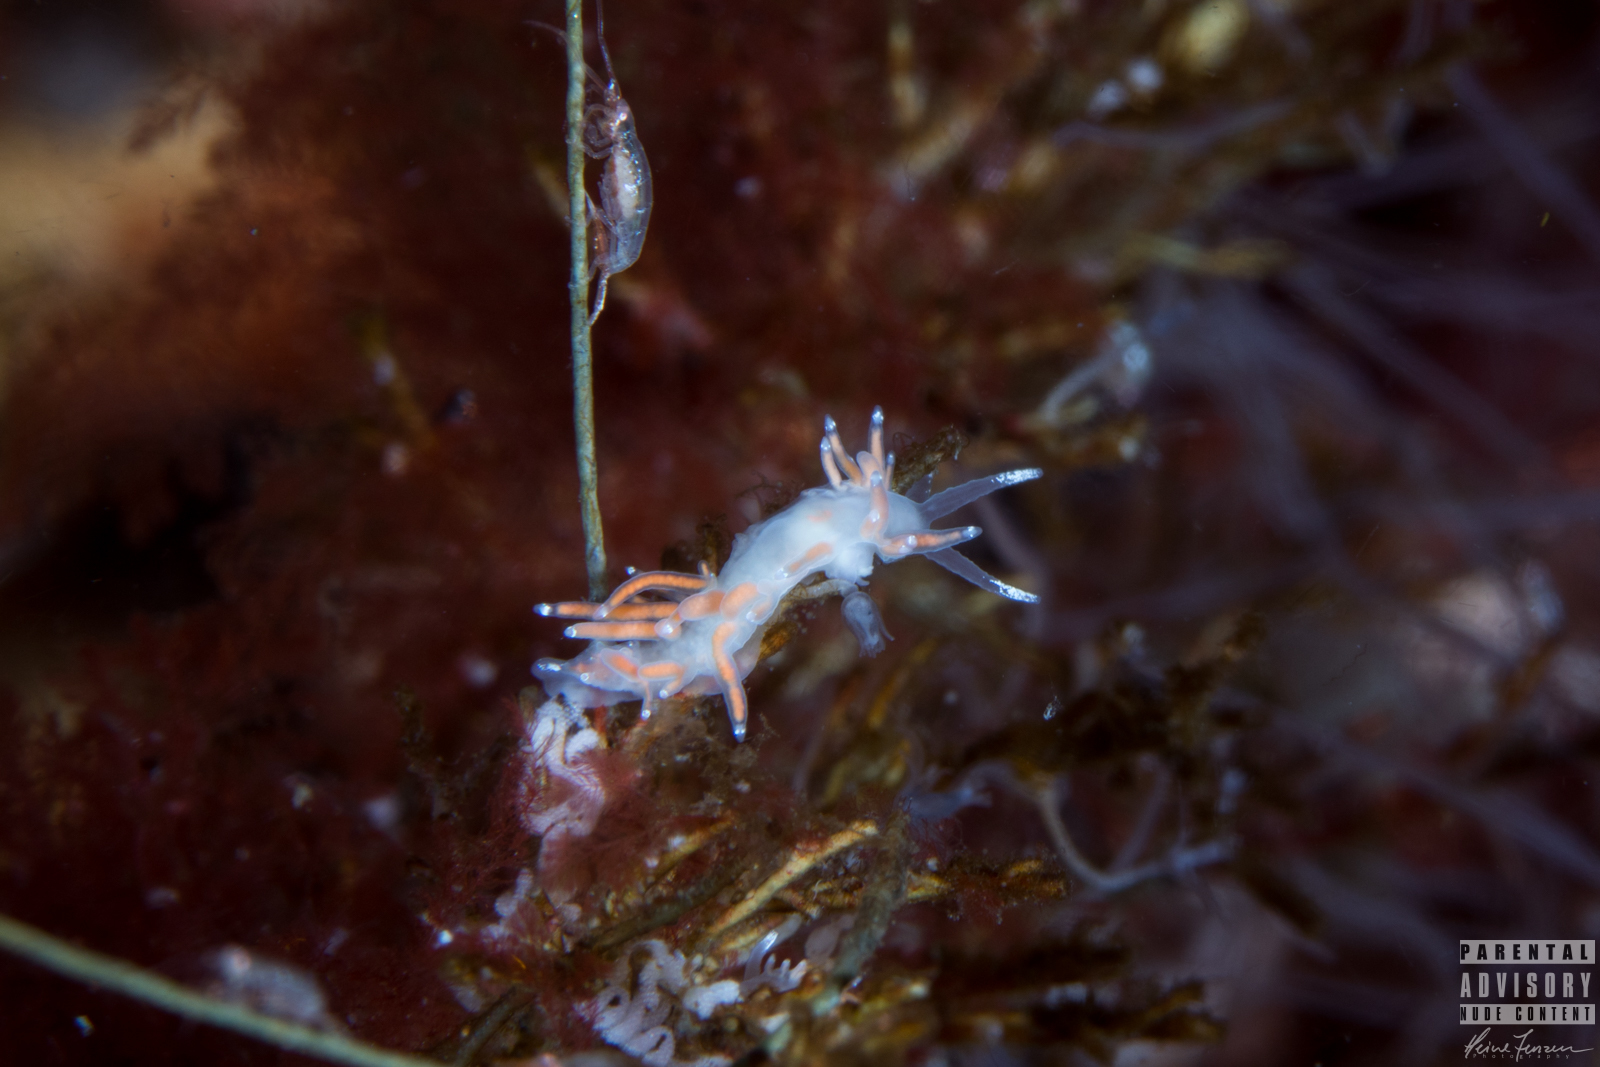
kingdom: Animalia
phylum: Mollusca
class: Gastropoda
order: Nudibranchia
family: Coryphellidae
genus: Coryphella
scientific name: Coryphella gracilis
